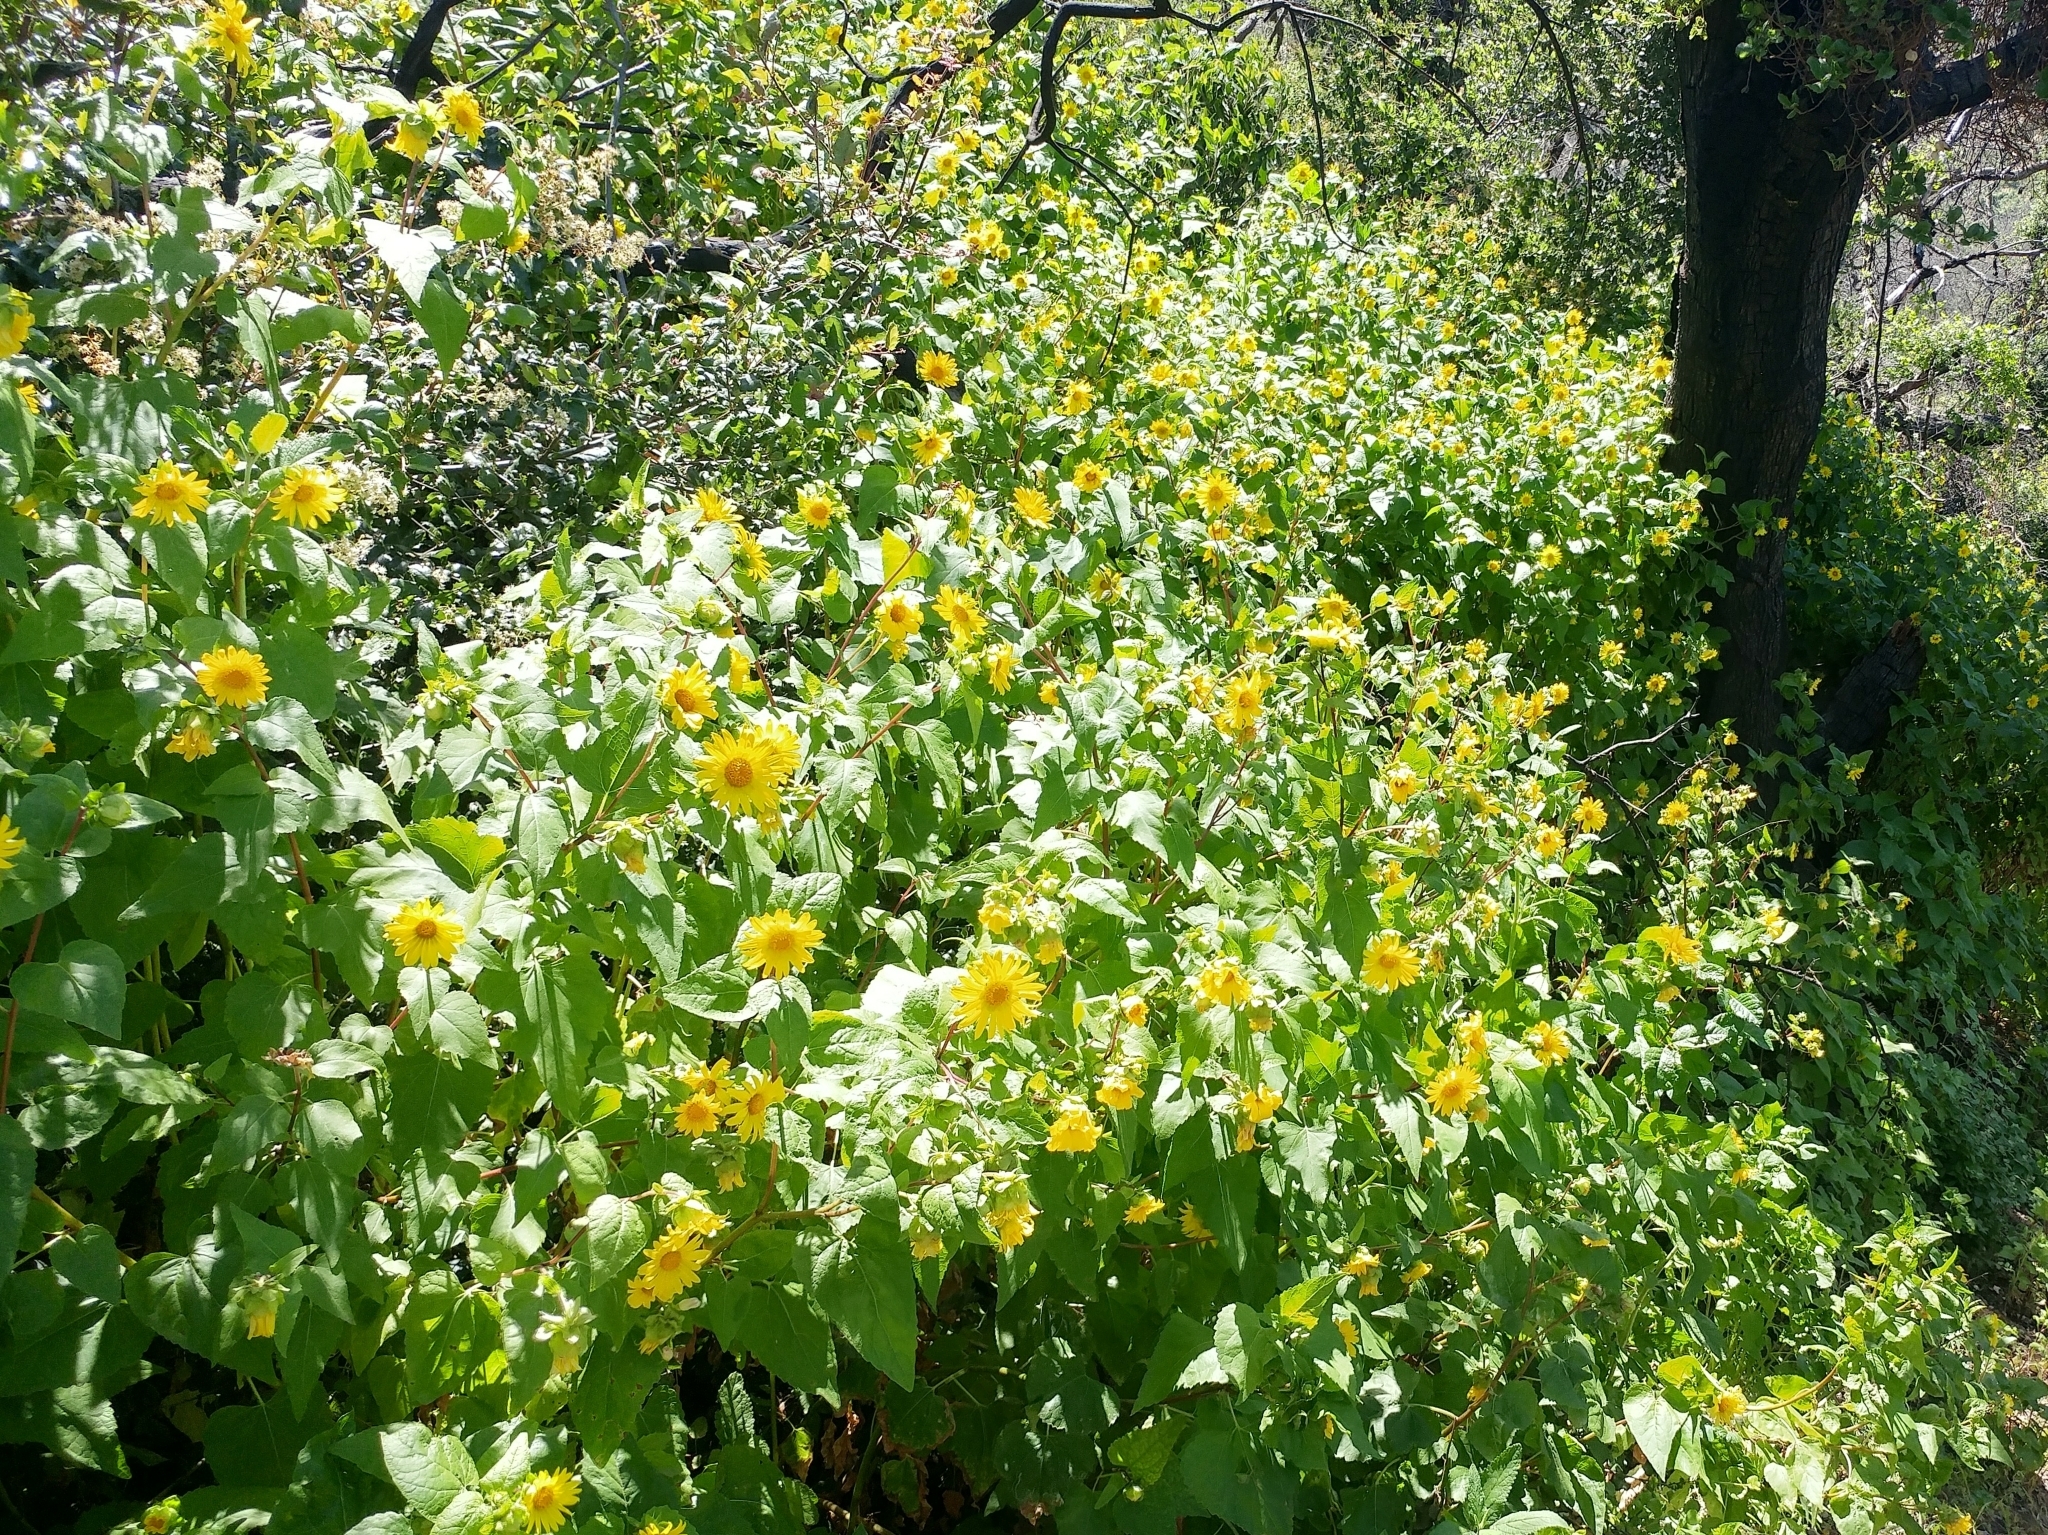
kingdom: Plantae
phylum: Tracheophyta
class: Magnoliopsida
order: Asterales
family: Asteraceae
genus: Venegasia
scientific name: Venegasia carpesioides
